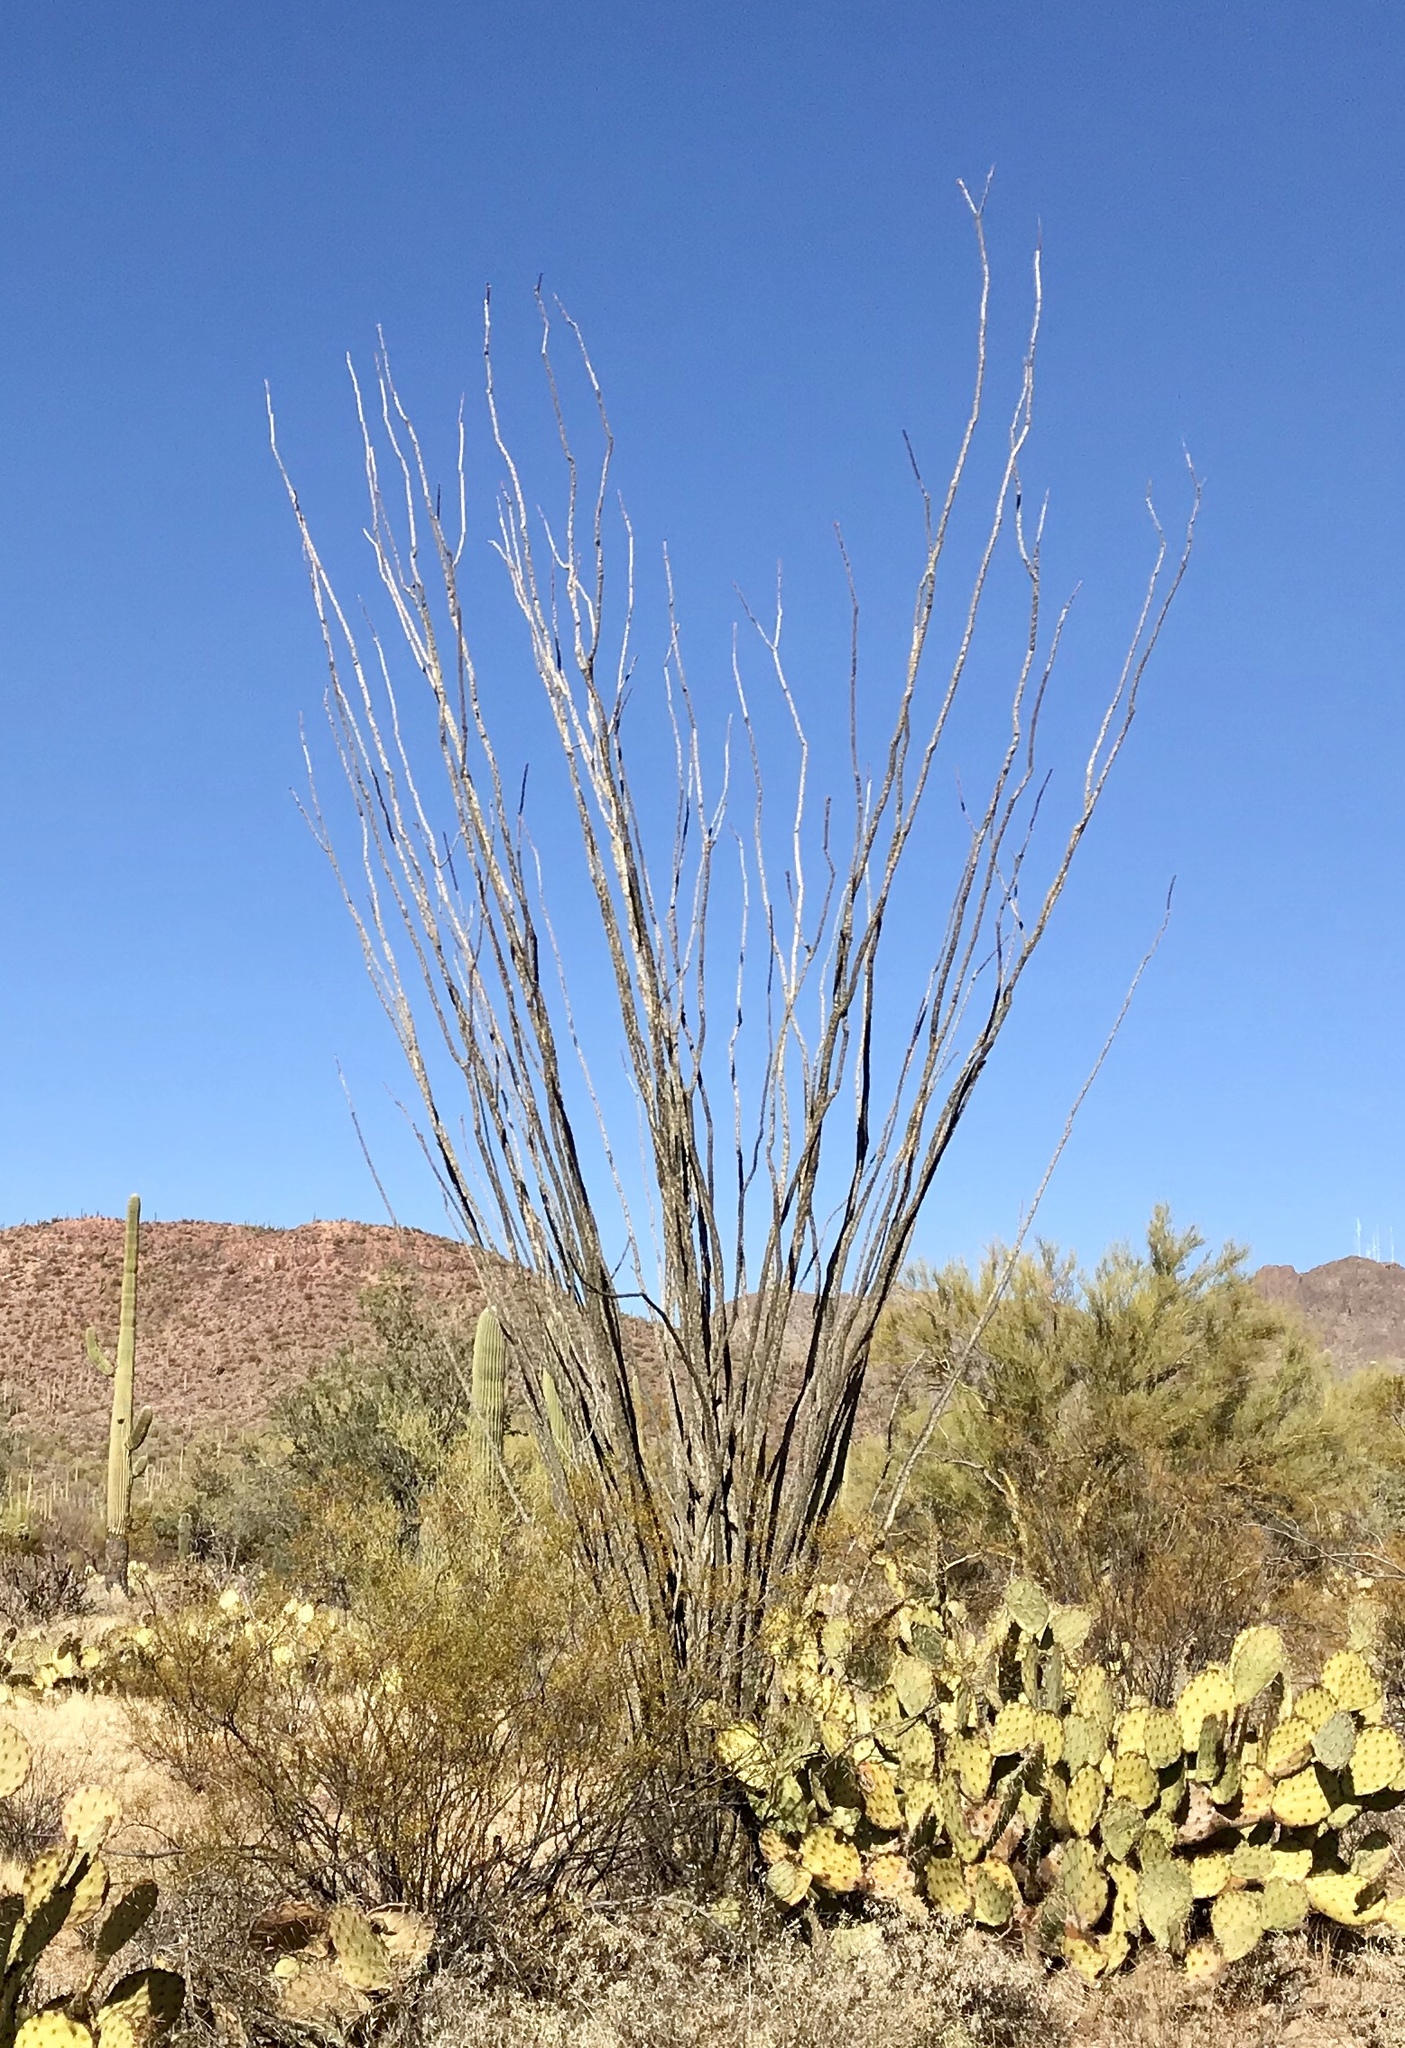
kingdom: Plantae
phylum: Tracheophyta
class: Magnoliopsida
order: Ericales
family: Fouquieriaceae
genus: Fouquieria
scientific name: Fouquieria splendens
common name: Vine-cactus
